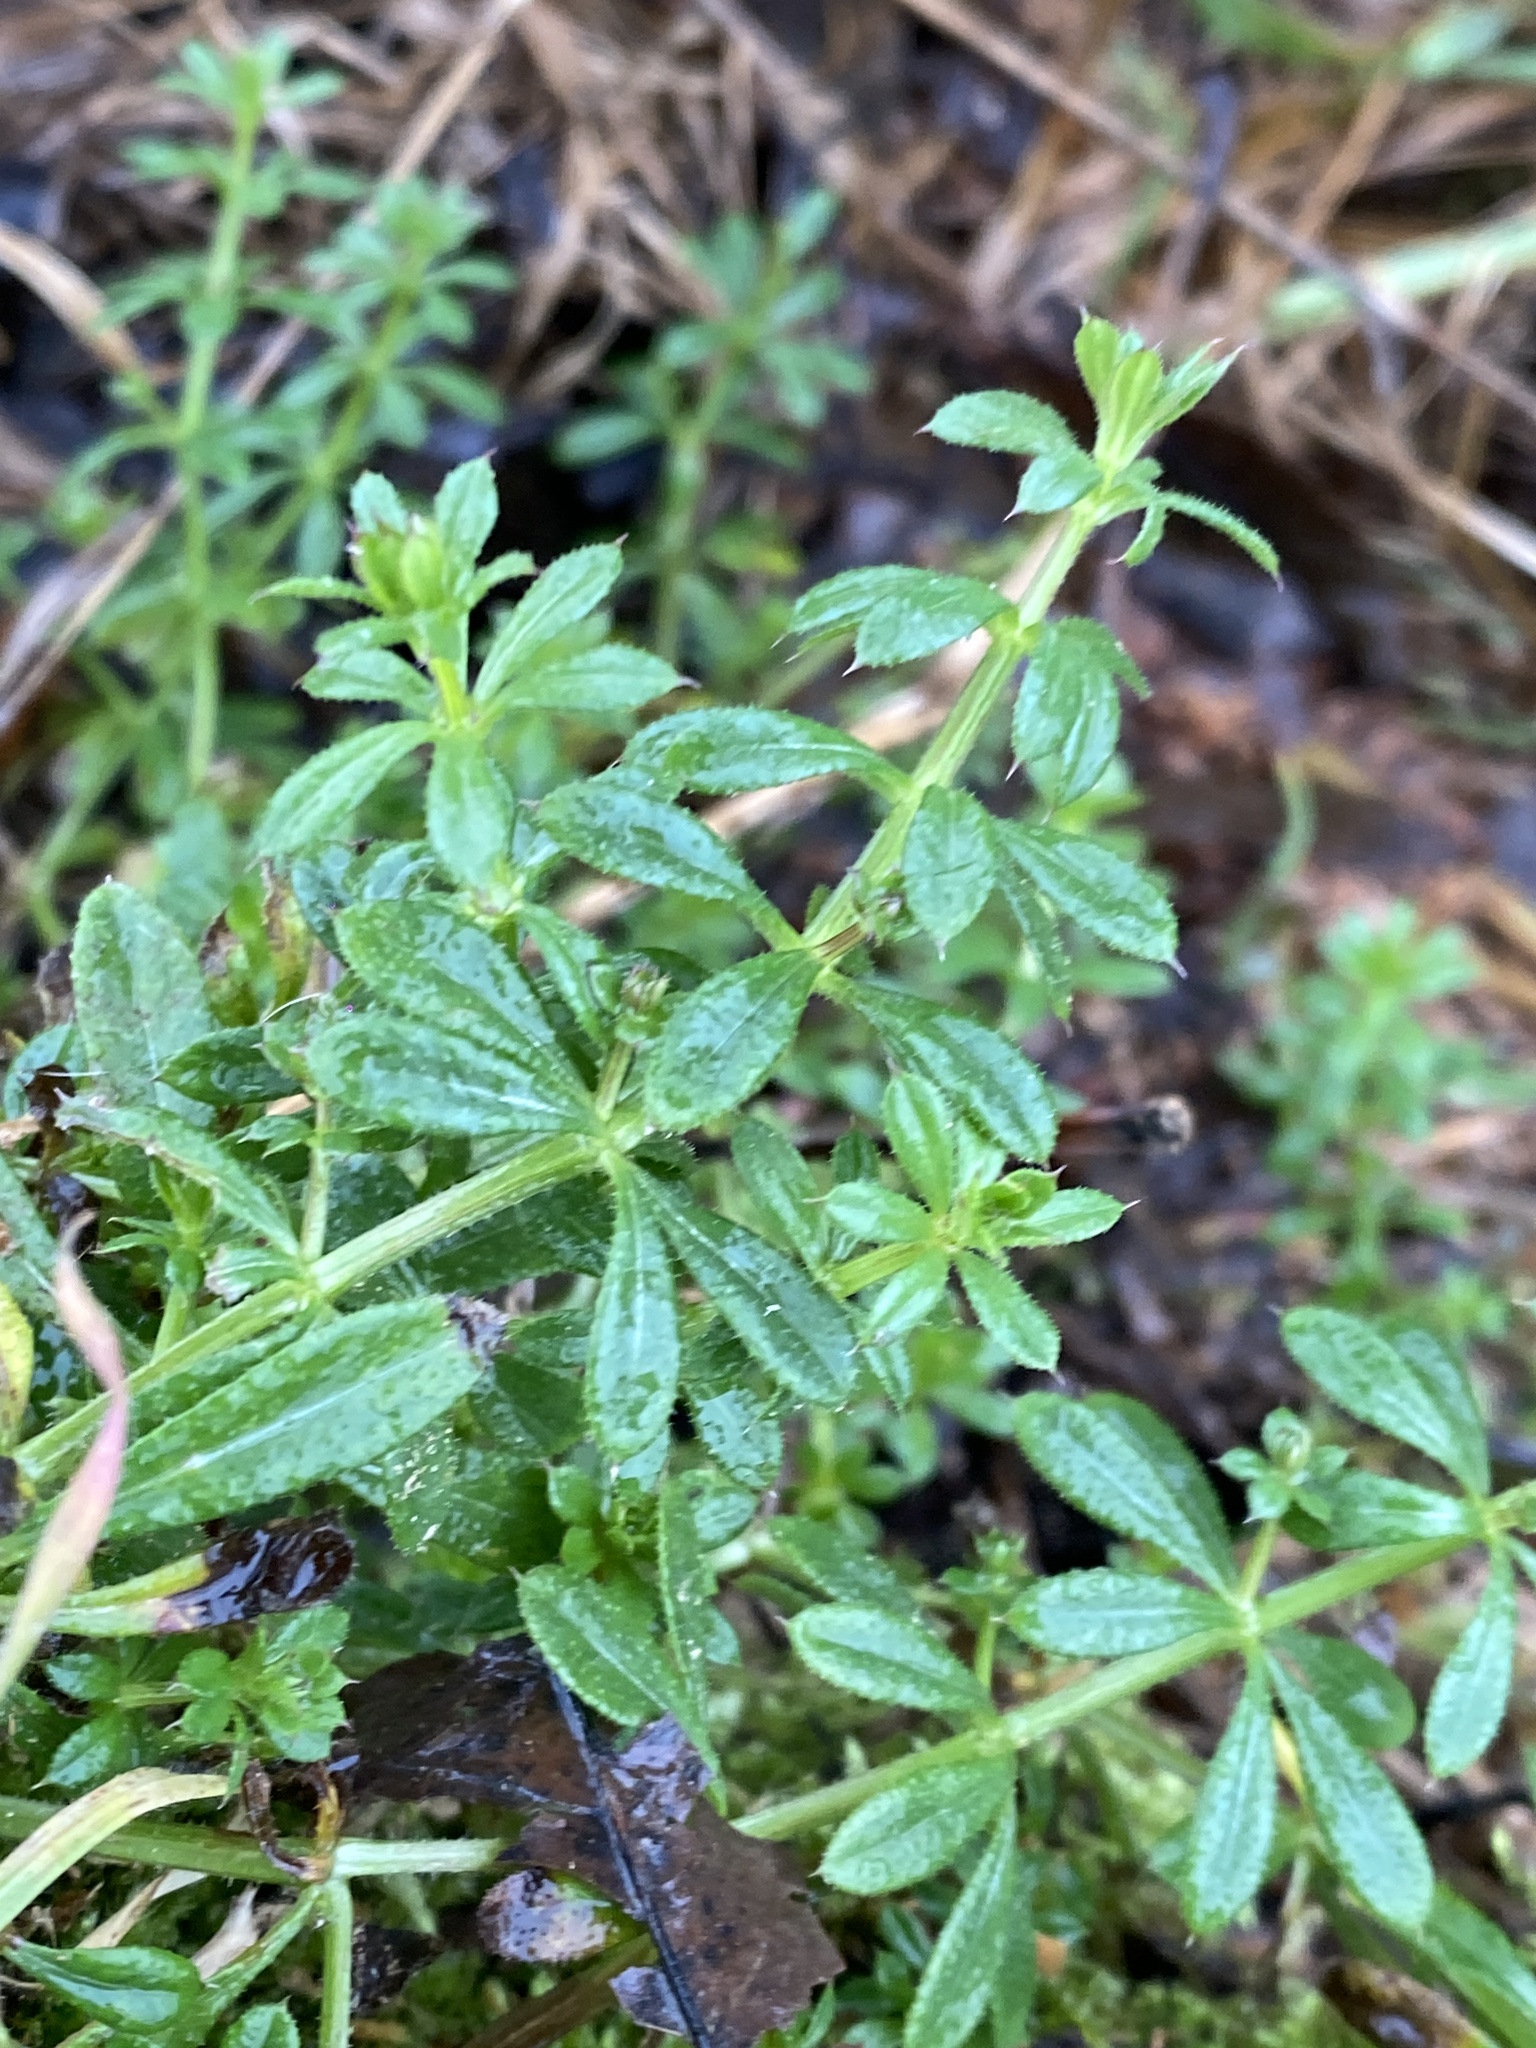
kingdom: Plantae
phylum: Tracheophyta
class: Magnoliopsida
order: Gentianales
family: Rubiaceae
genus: Galium
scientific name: Galium aparine
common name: Cleavers
